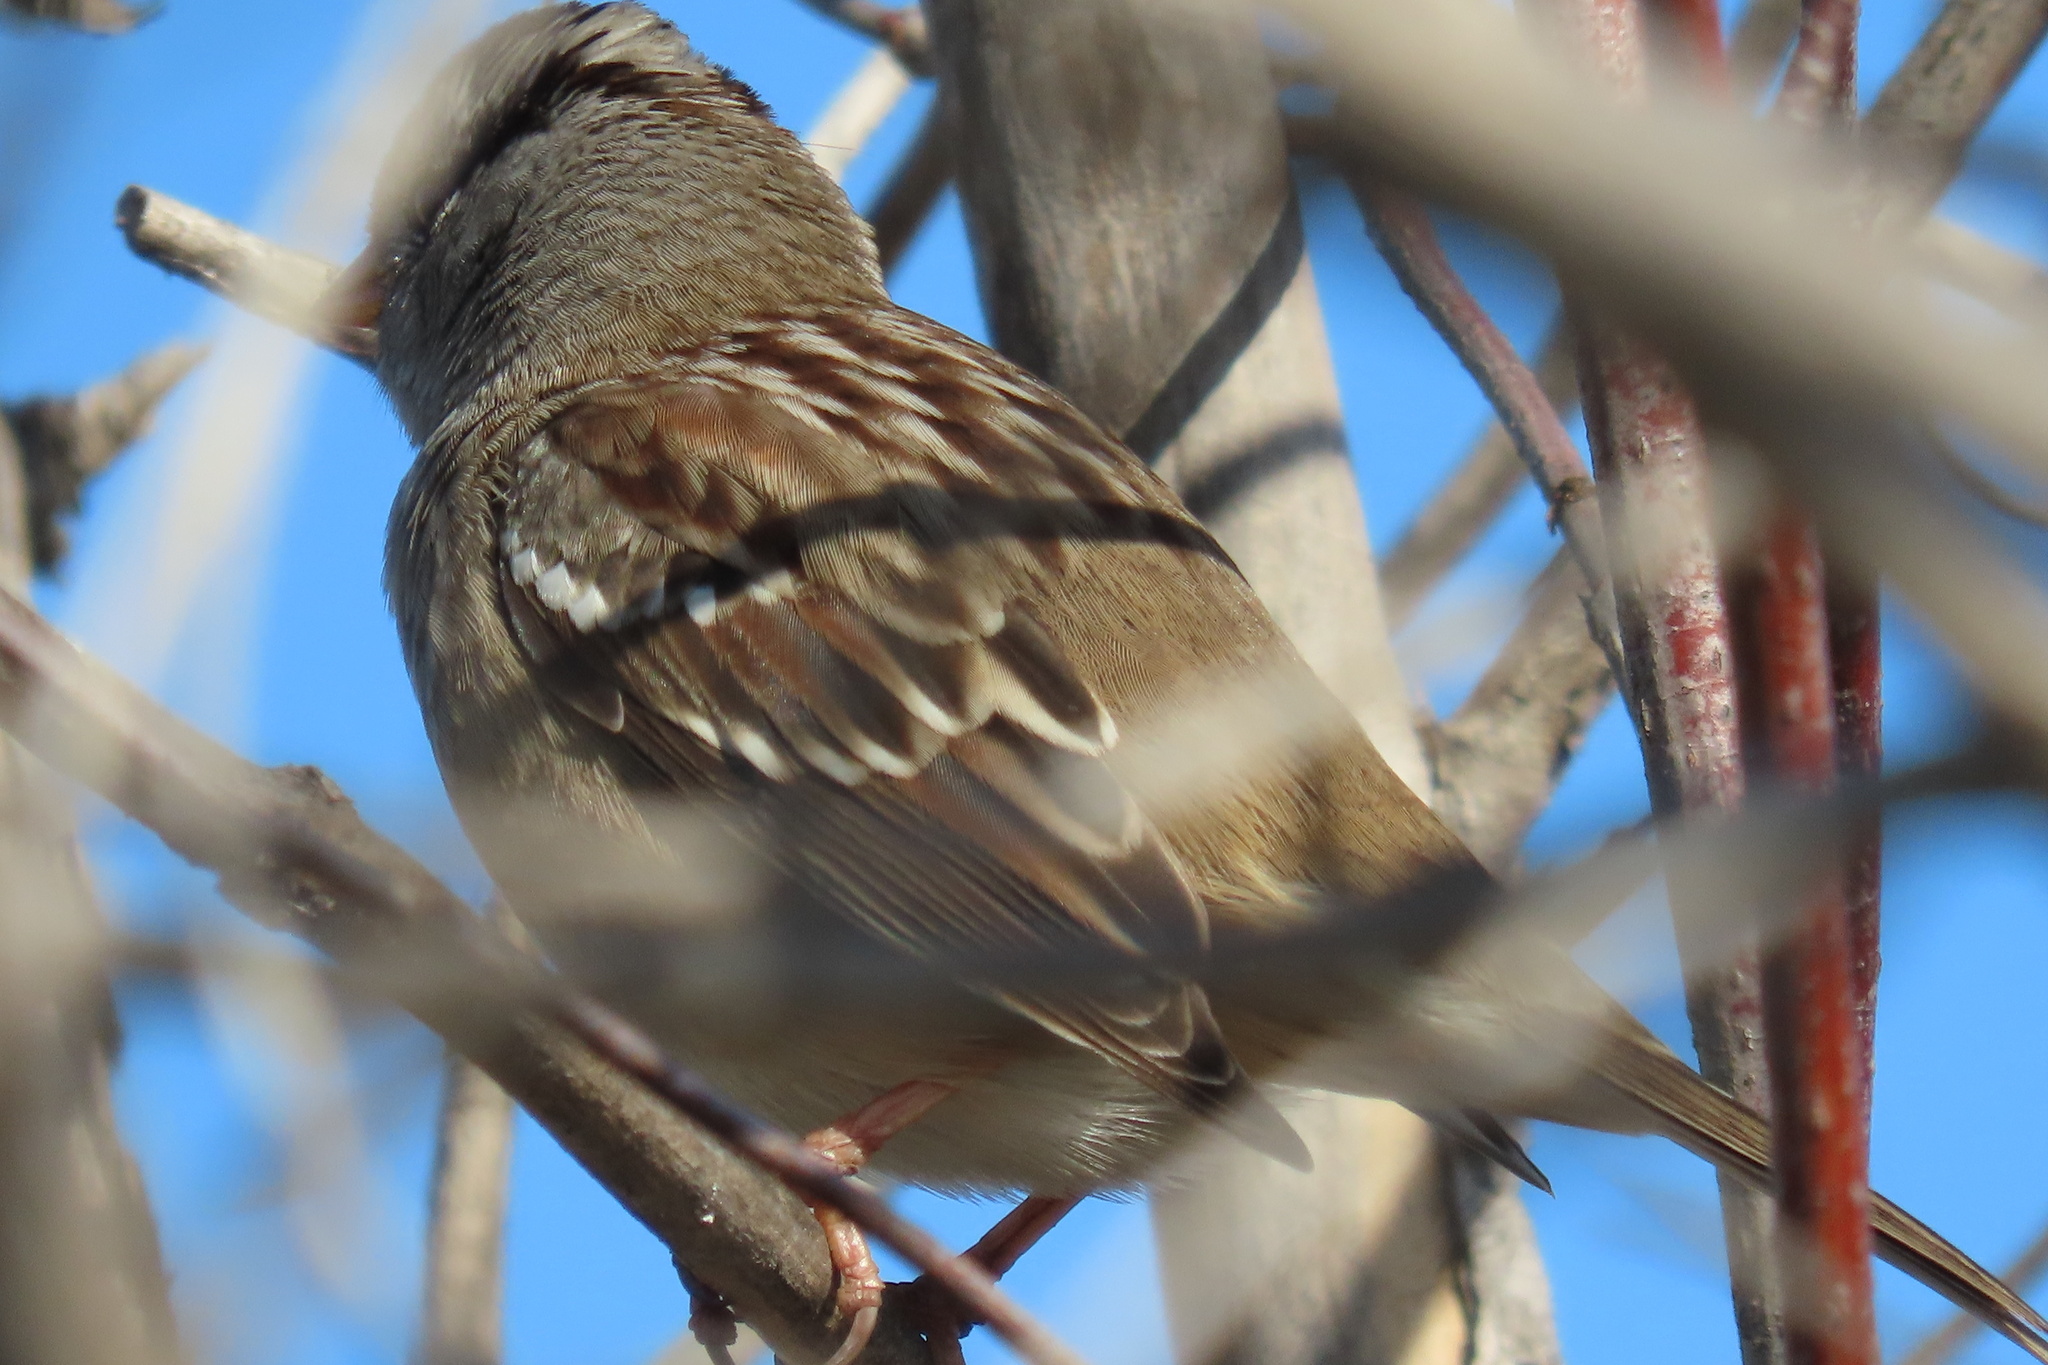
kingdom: Animalia
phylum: Chordata
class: Aves
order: Passeriformes
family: Passerellidae
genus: Zonotrichia
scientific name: Zonotrichia leucophrys
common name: White-crowned sparrow
